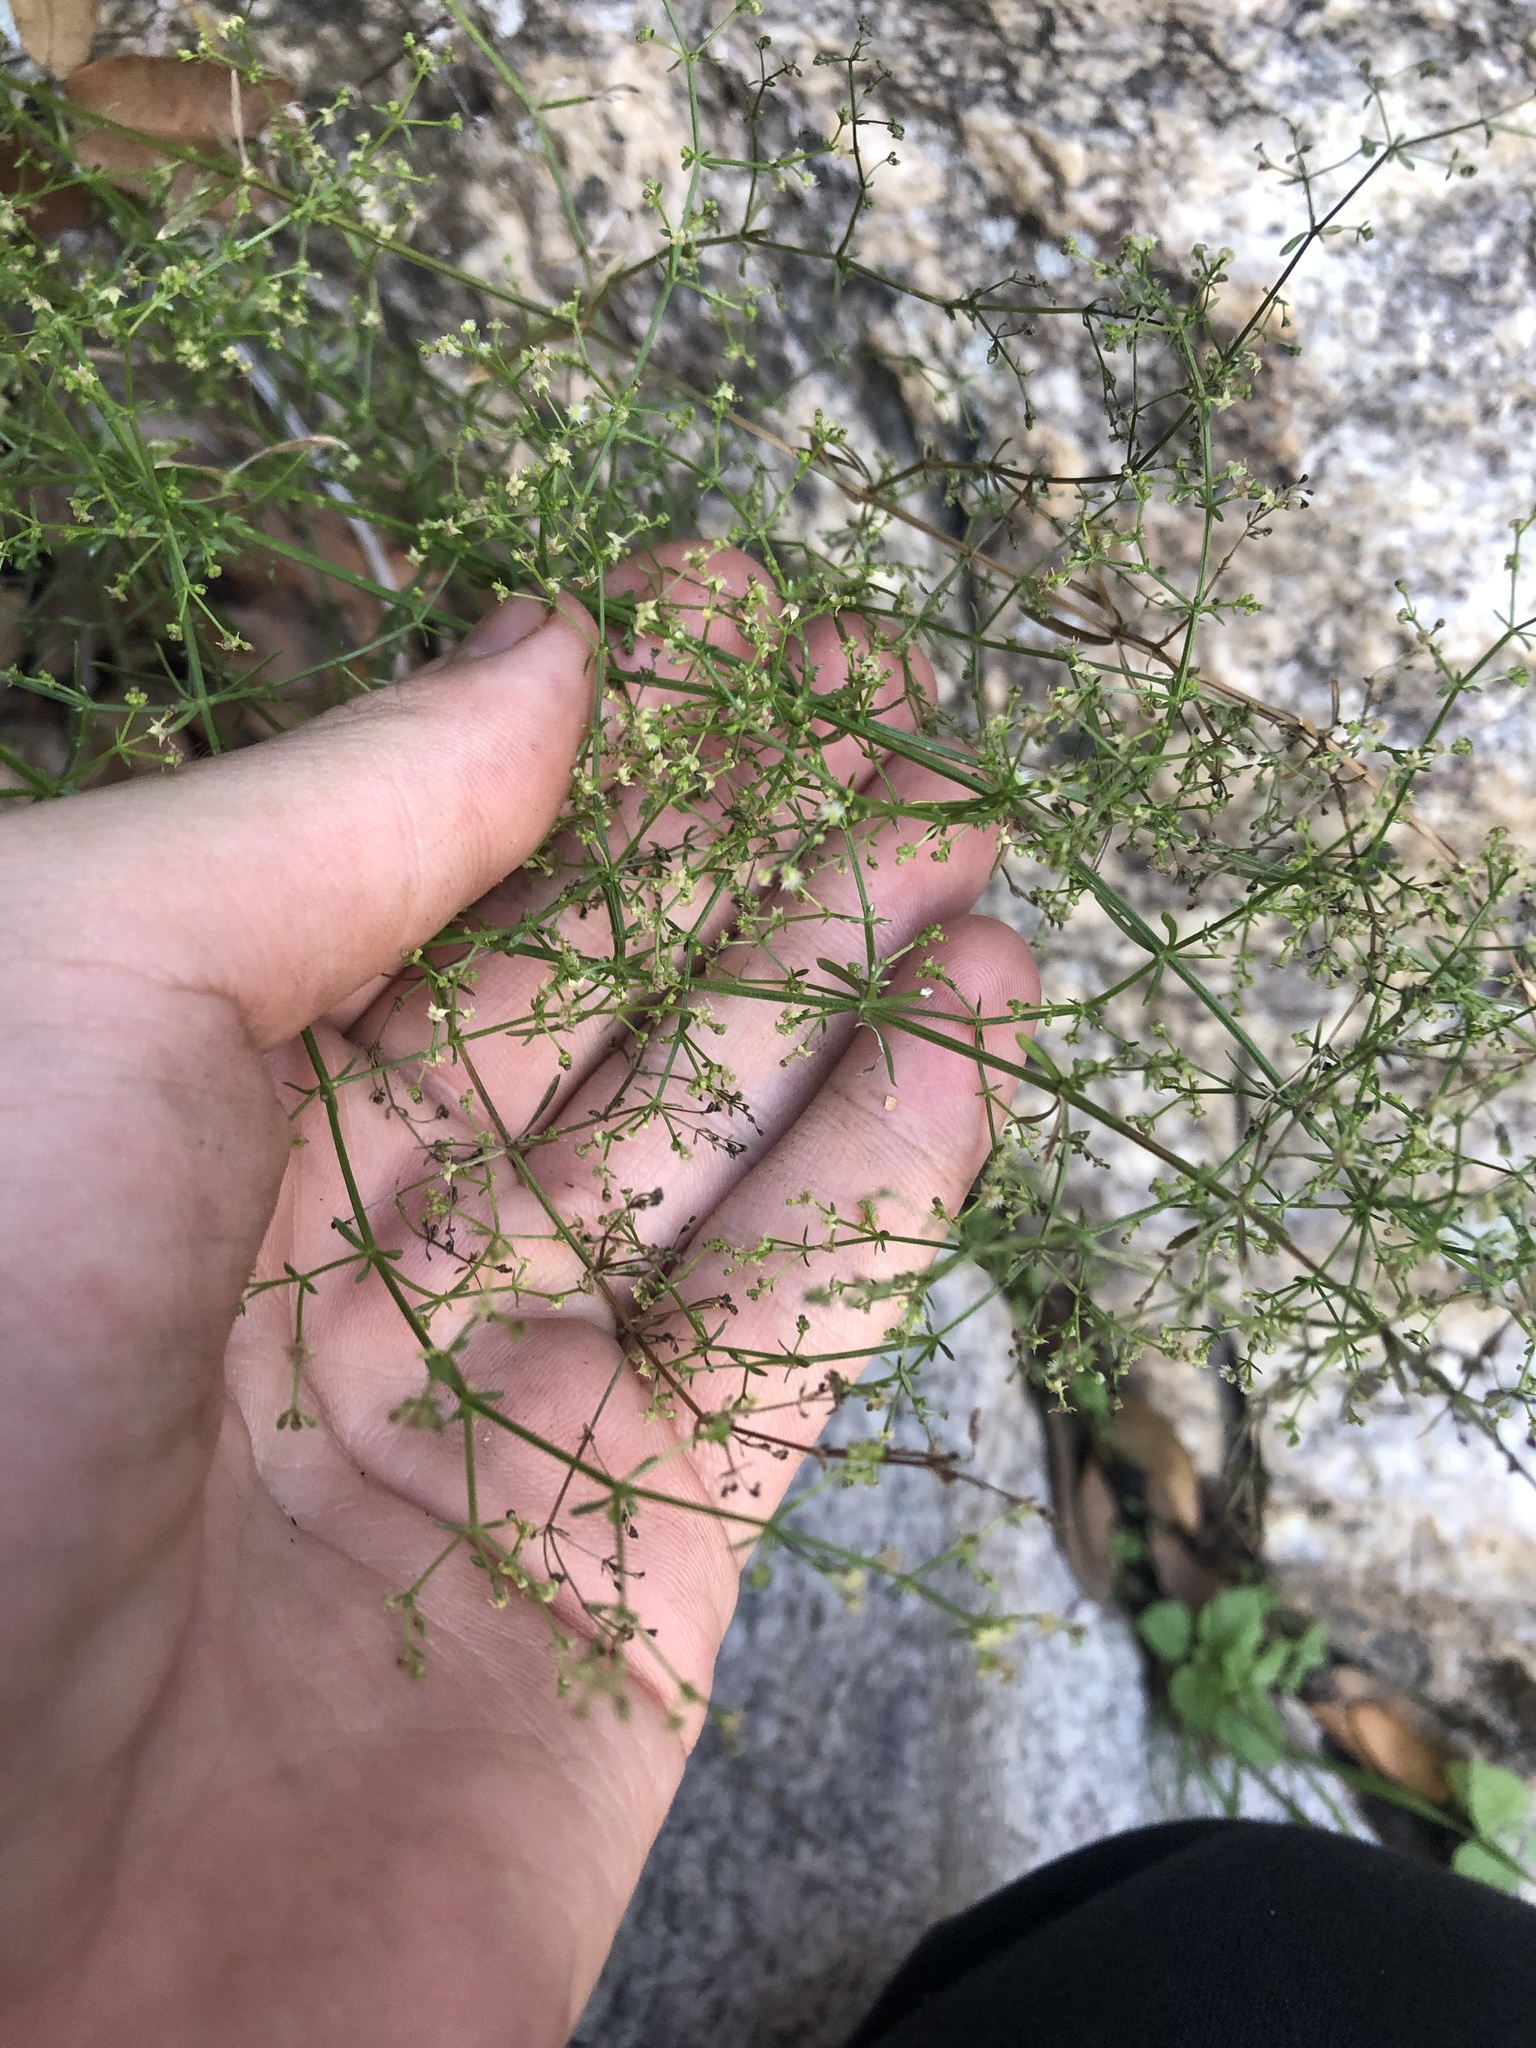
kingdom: Plantae
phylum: Tracheophyta
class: Magnoliopsida
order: Gentianales
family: Rubiaceae
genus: Galium
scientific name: Galium fendleri
